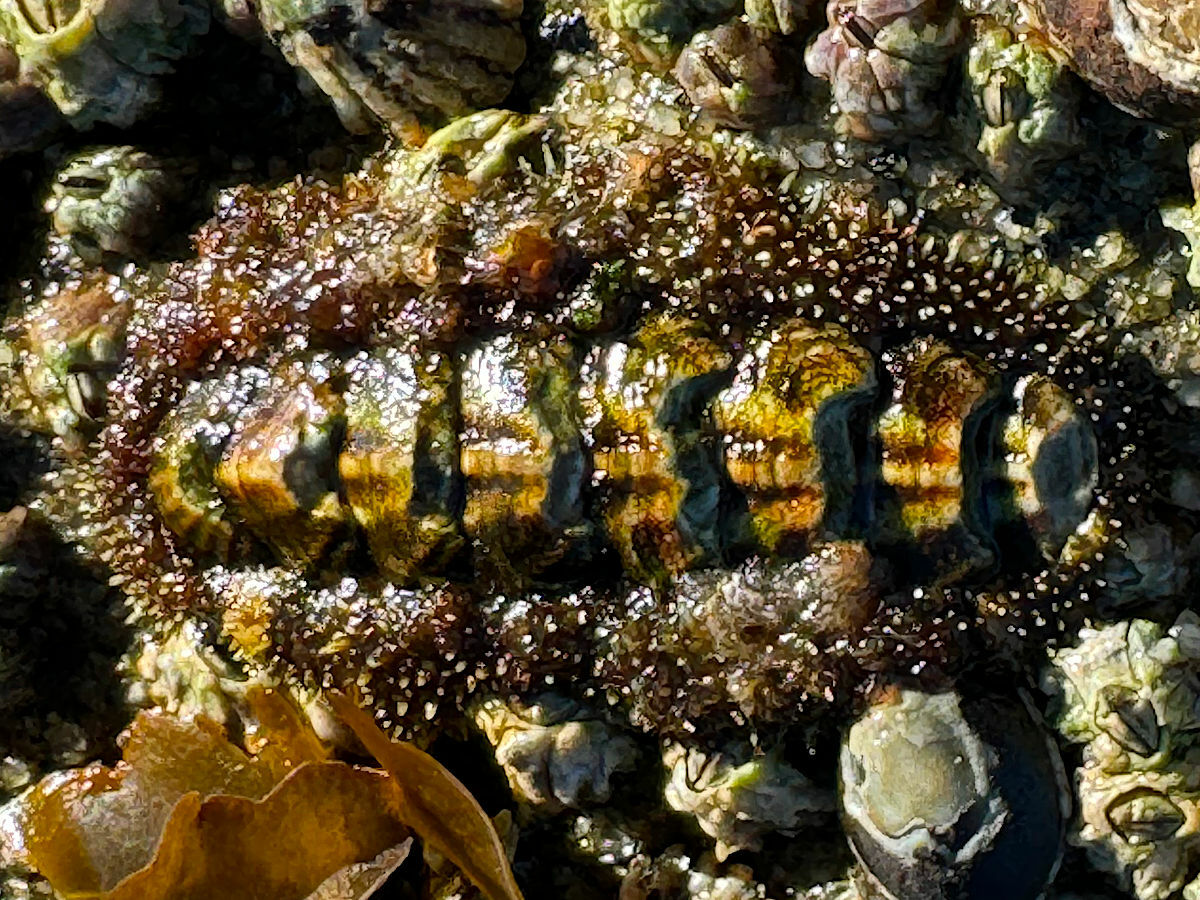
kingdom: Animalia
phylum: Mollusca
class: Polyplacophora
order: Chitonida
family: Tonicellidae
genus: Nuttallina
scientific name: Nuttallina californica
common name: California nuttall chiton
